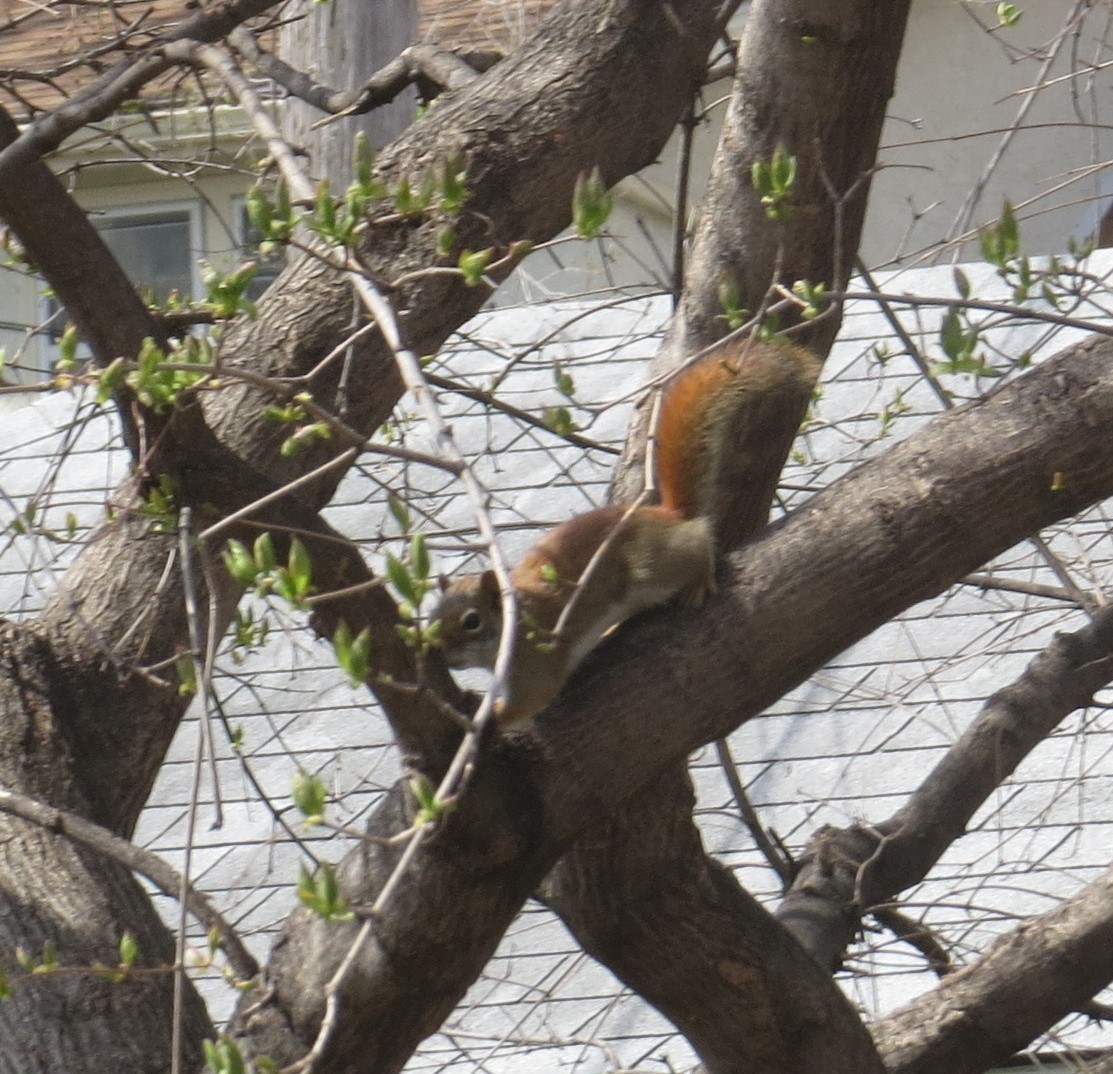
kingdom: Animalia
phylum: Chordata
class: Mammalia
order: Rodentia
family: Sciuridae
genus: Tamiasciurus
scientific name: Tamiasciurus hudsonicus
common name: Red squirrel
